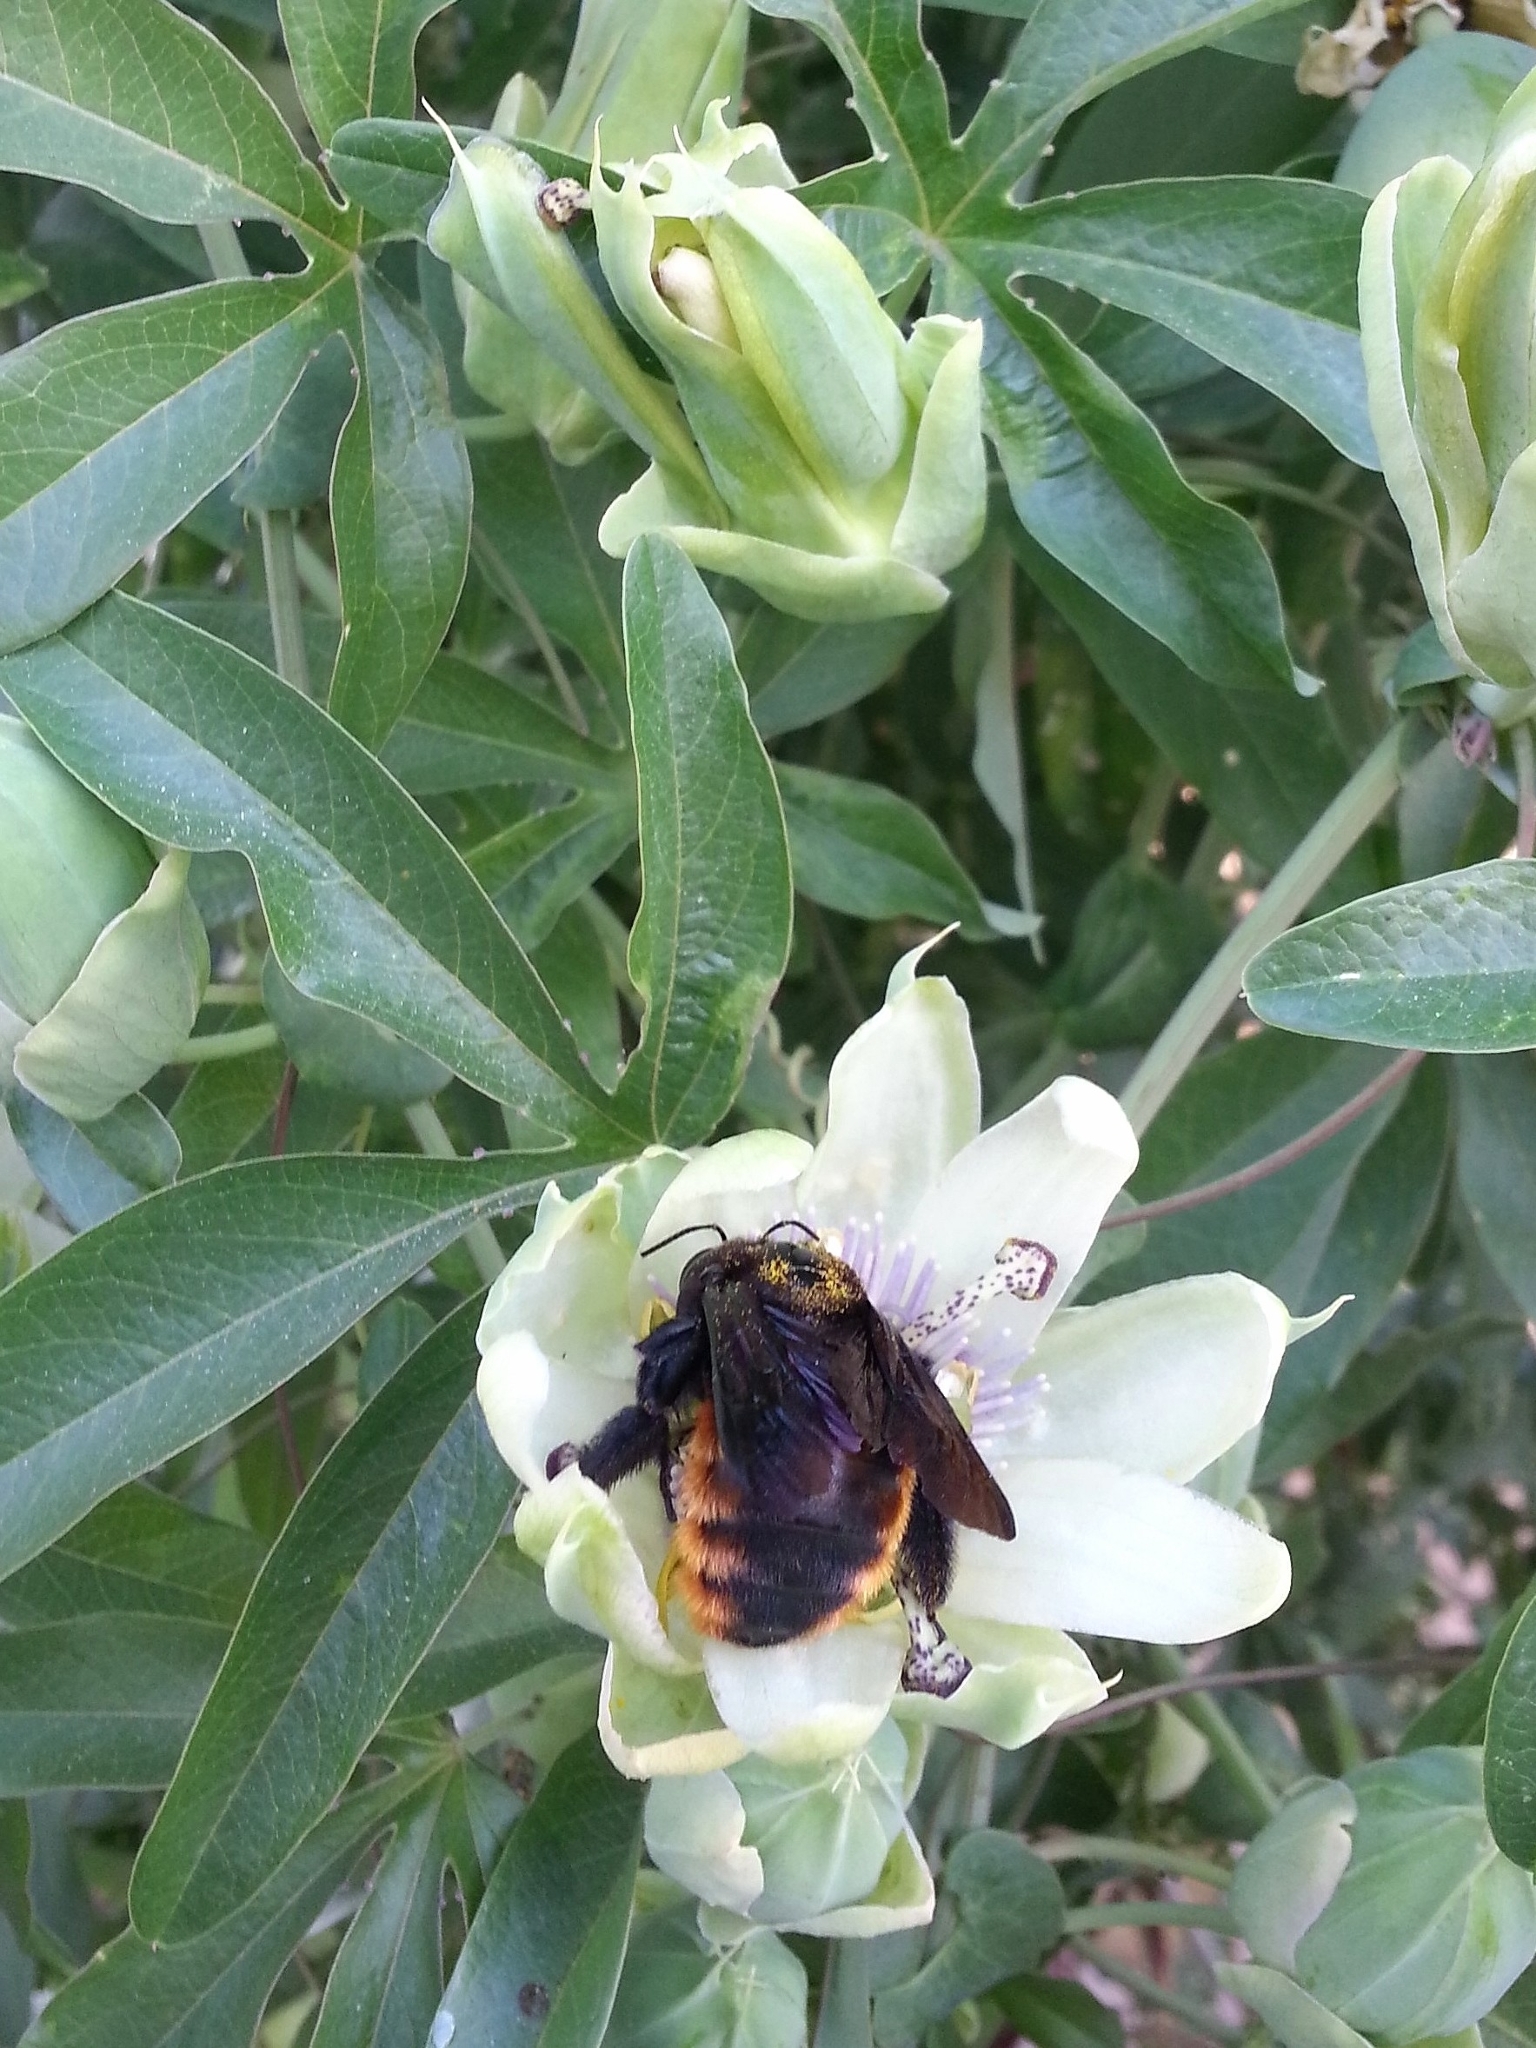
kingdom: Animalia
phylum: Arthropoda
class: Insecta
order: Hymenoptera
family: Apidae
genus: Xylocopa
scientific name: Xylocopa augusti
